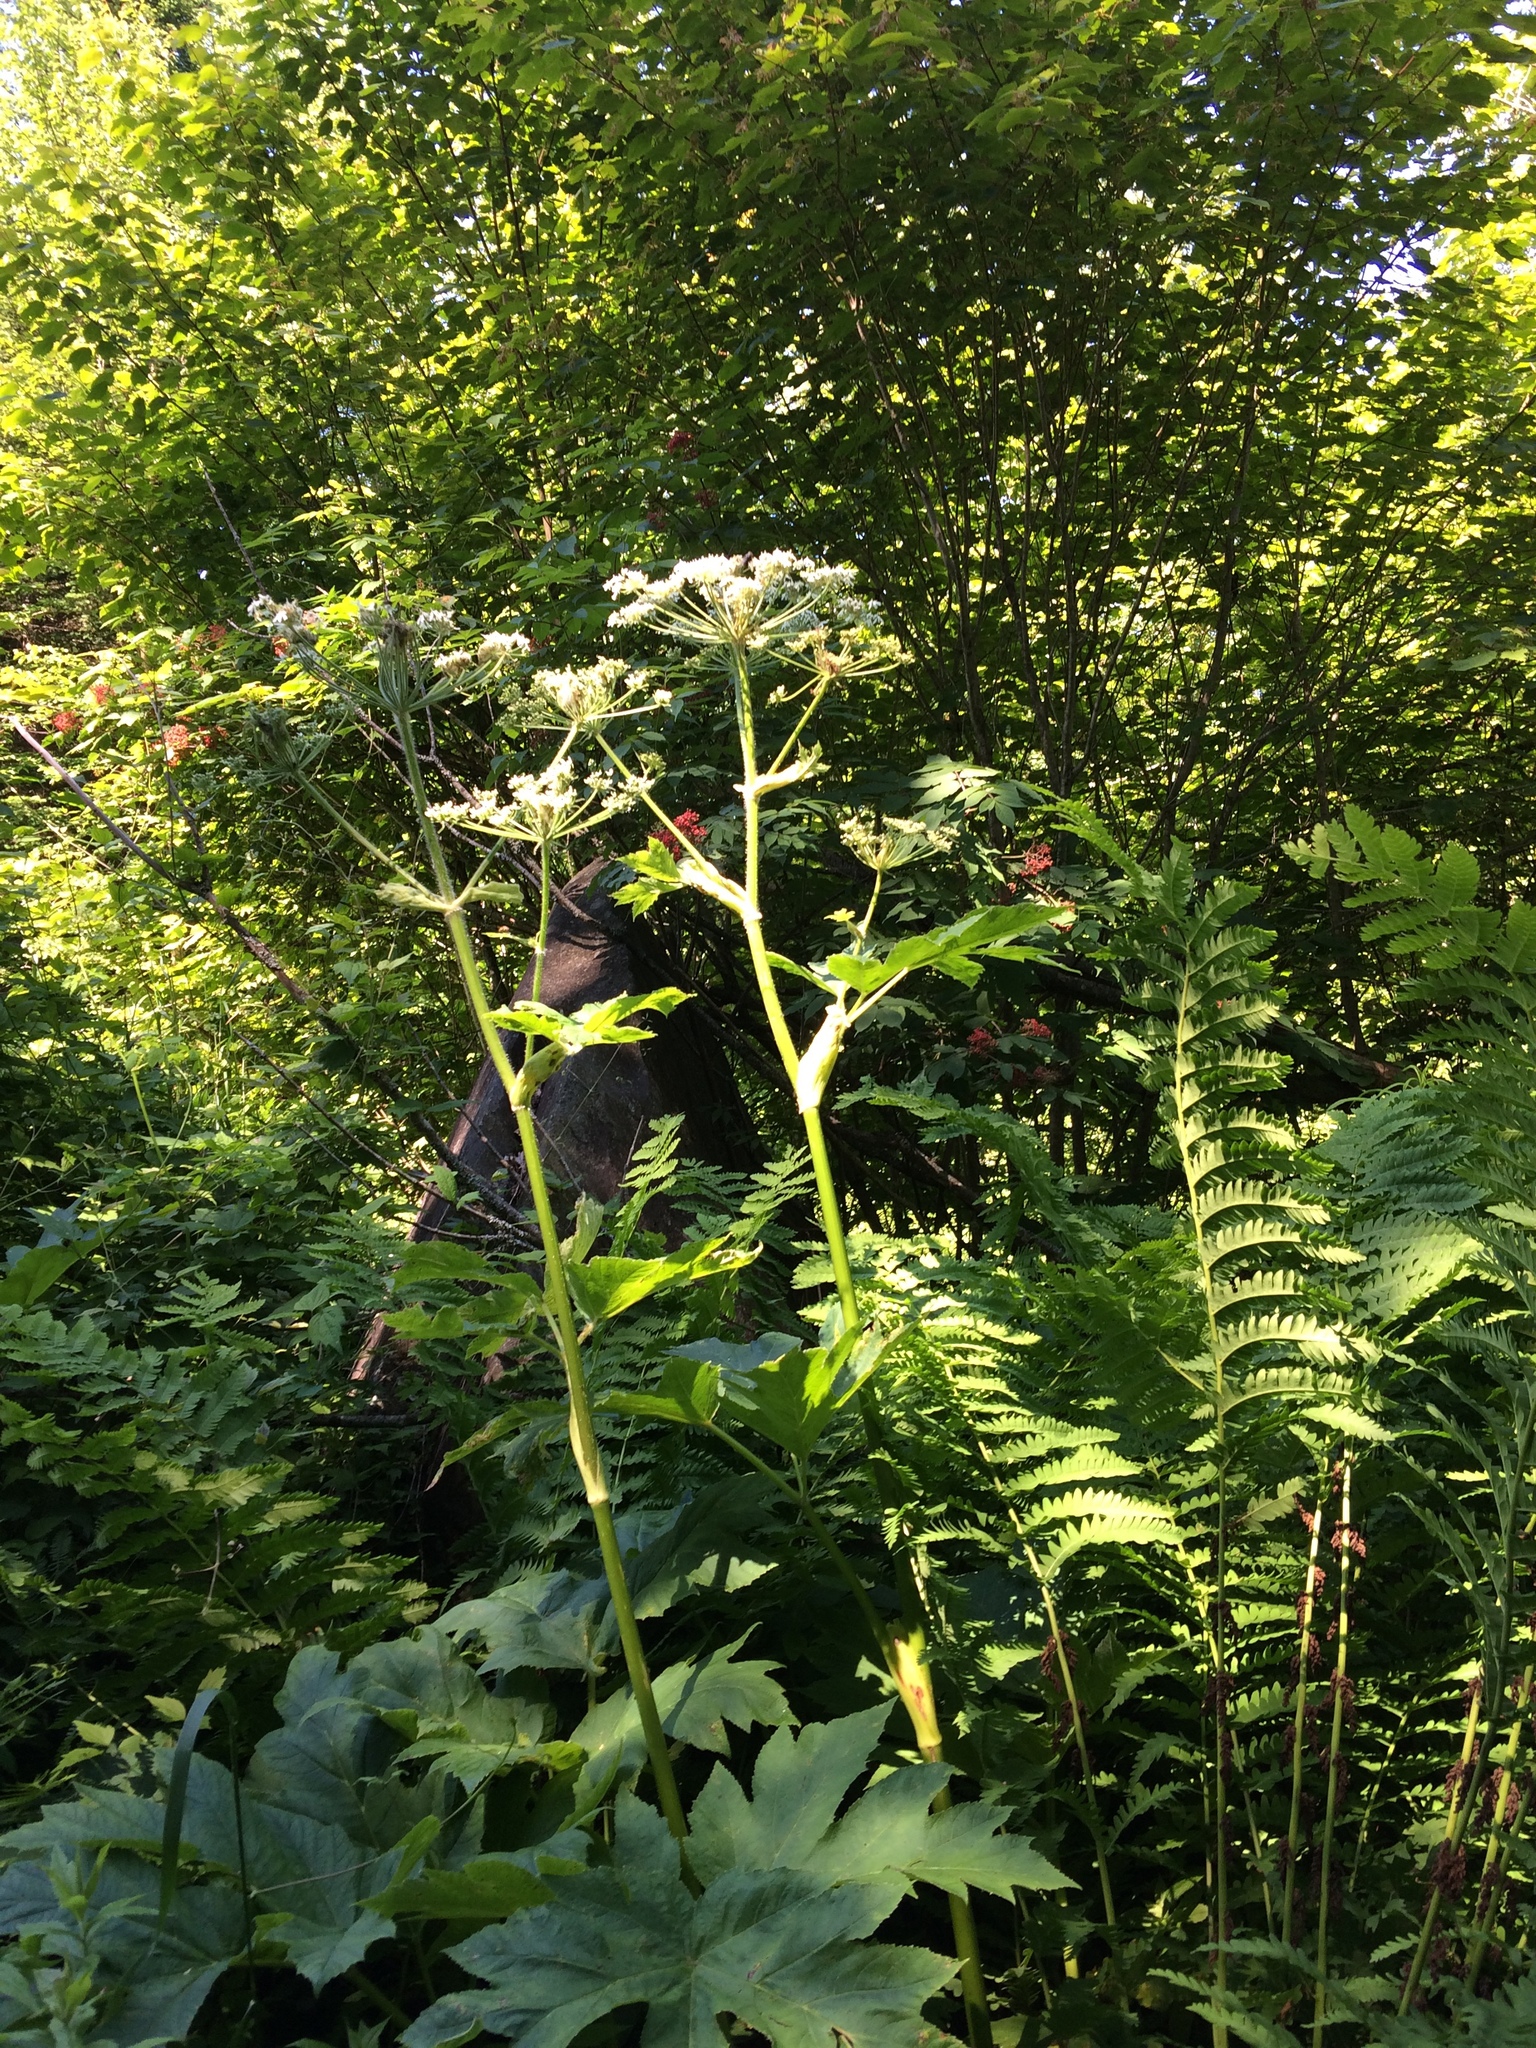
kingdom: Plantae
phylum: Tracheophyta
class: Magnoliopsida
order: Apiales
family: Apiaceae
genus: Heracleum
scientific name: Heracleum maximum
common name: American cow parsnip
